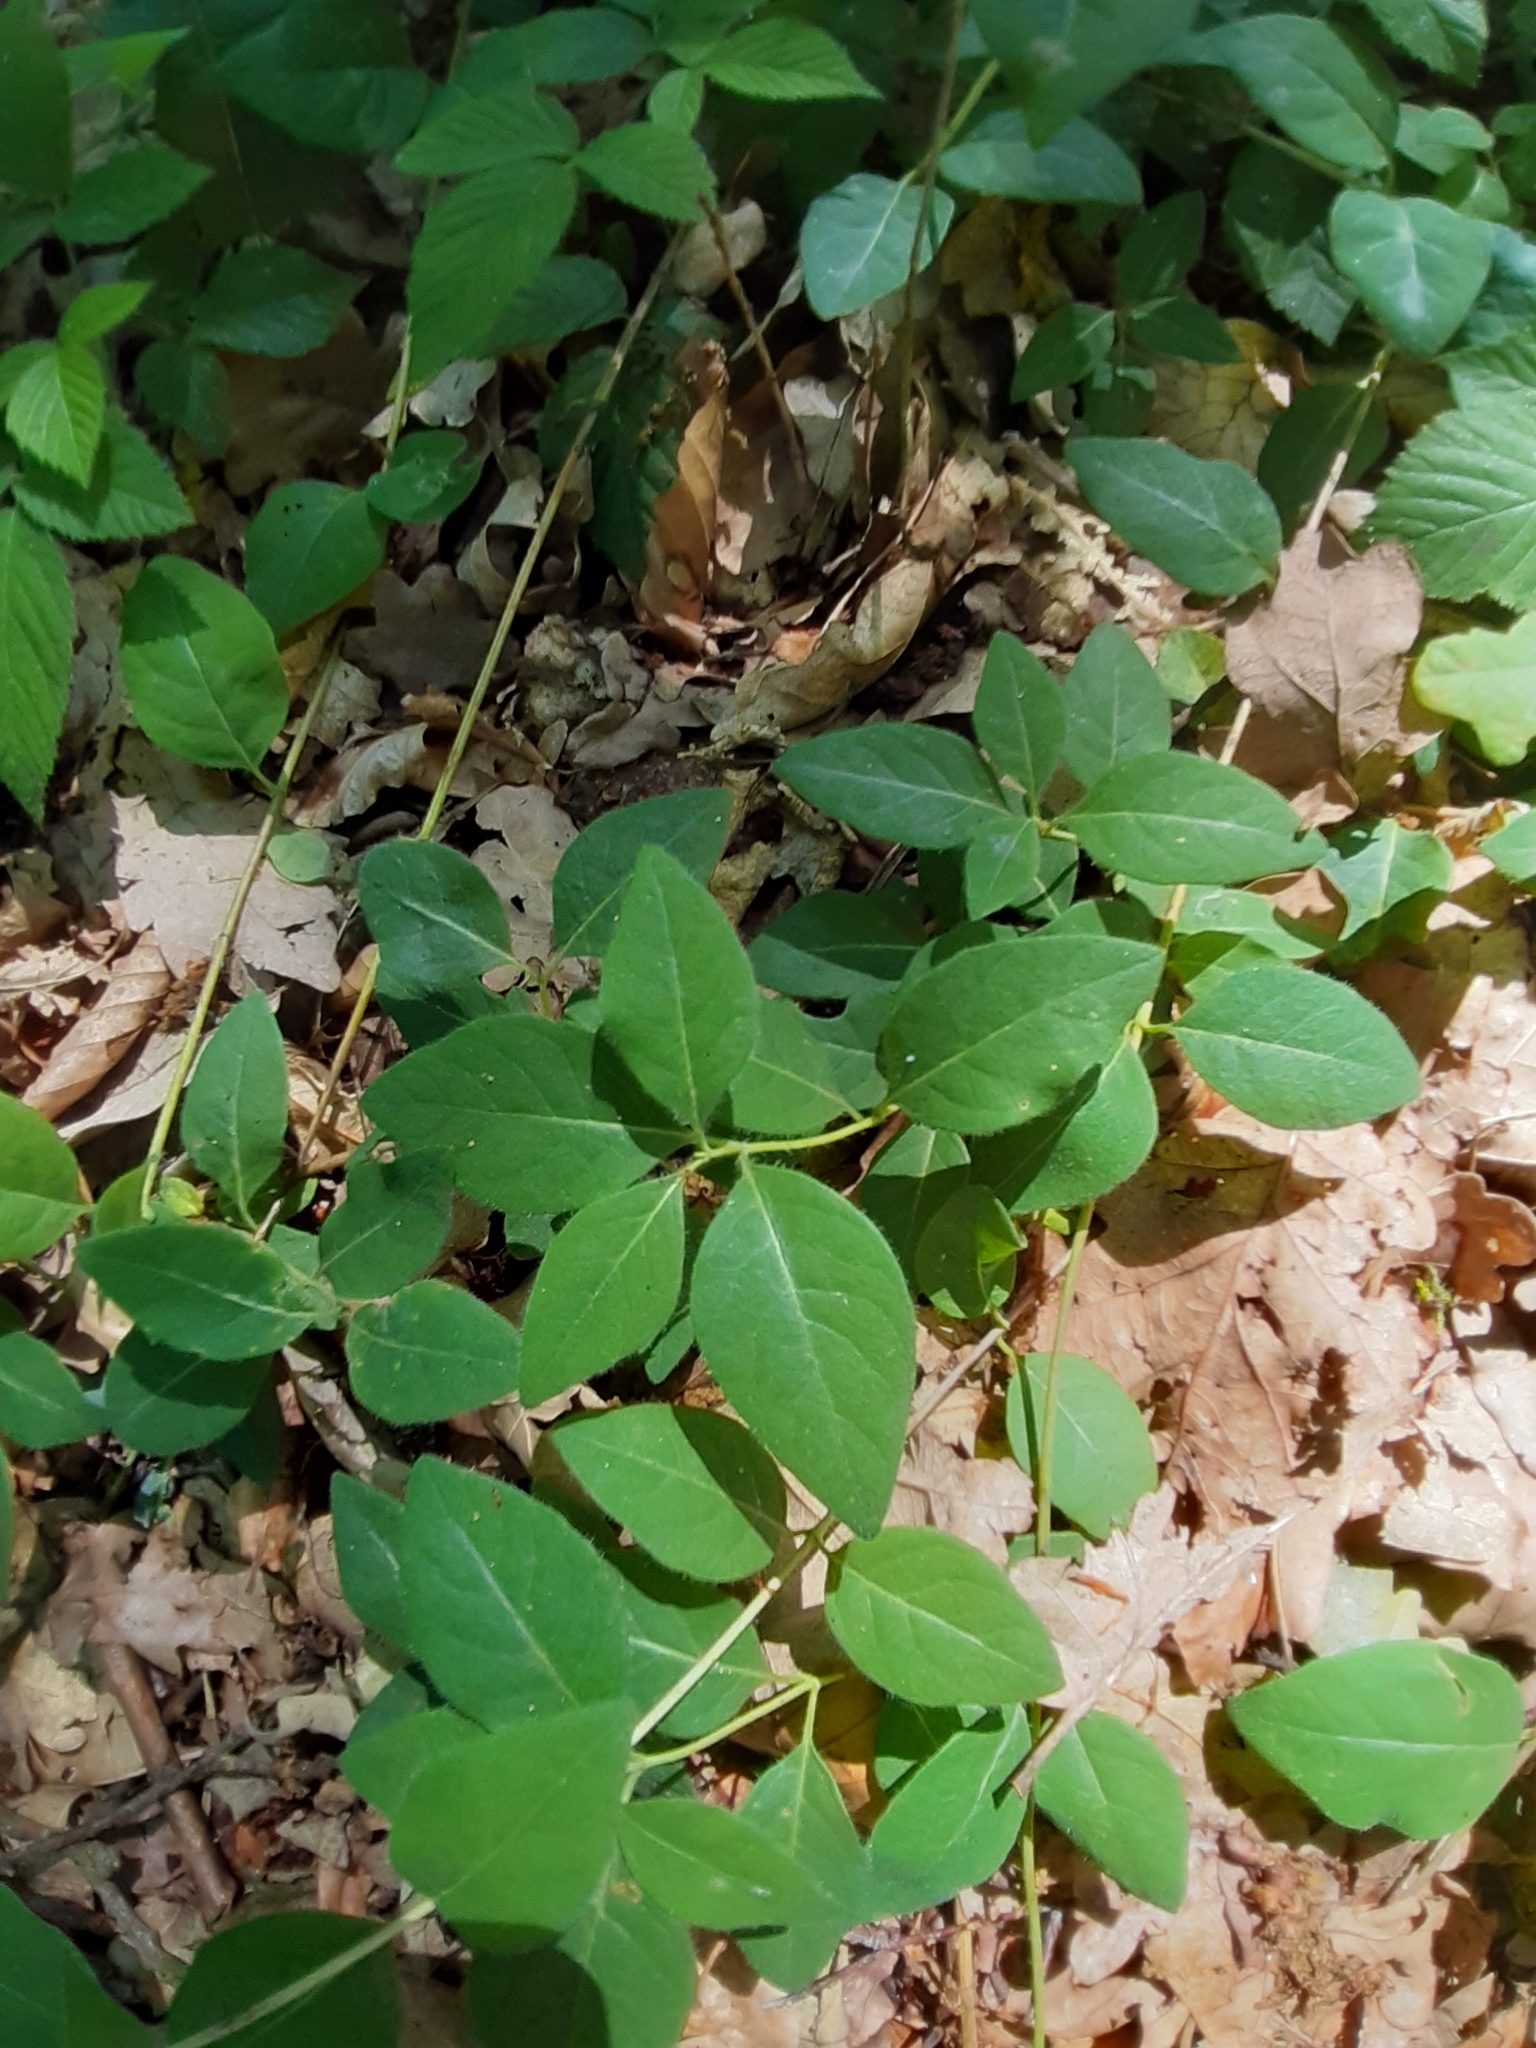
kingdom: Plantae
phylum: Tracheophyta
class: Magnoliopsida
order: Dipsacales
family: Caprifoliaceae
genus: Lonicera
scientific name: Lonicera periclymenum
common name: European honeysuckle
